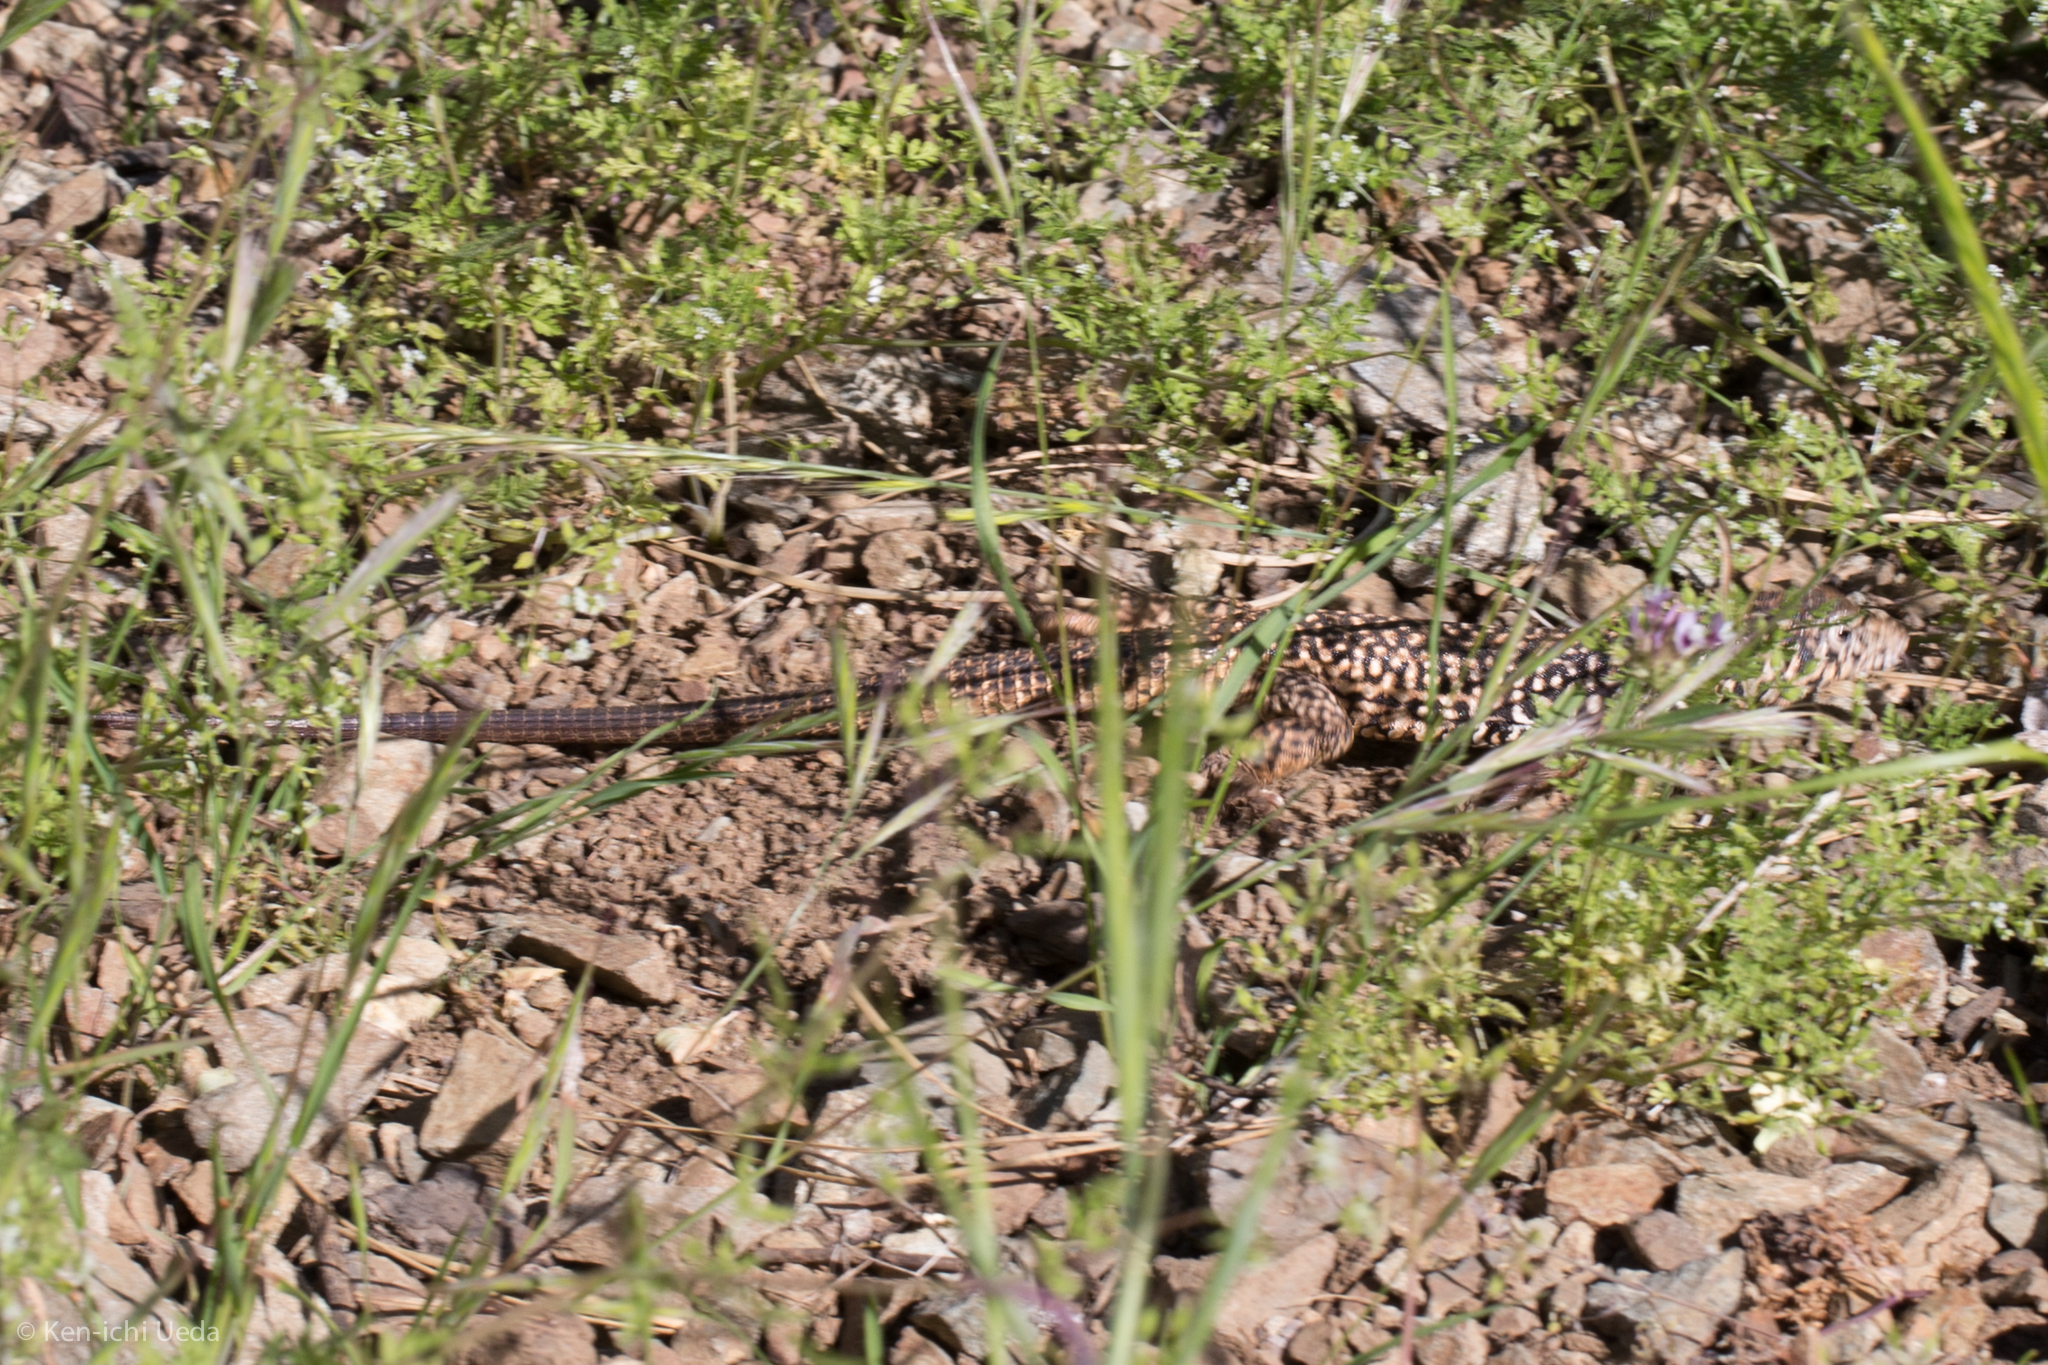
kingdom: Animalia
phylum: Chordata
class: Squamata
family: Teiidae
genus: Aspidoscelis
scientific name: Aspidoscelis tigris
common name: Tiger whiptail
